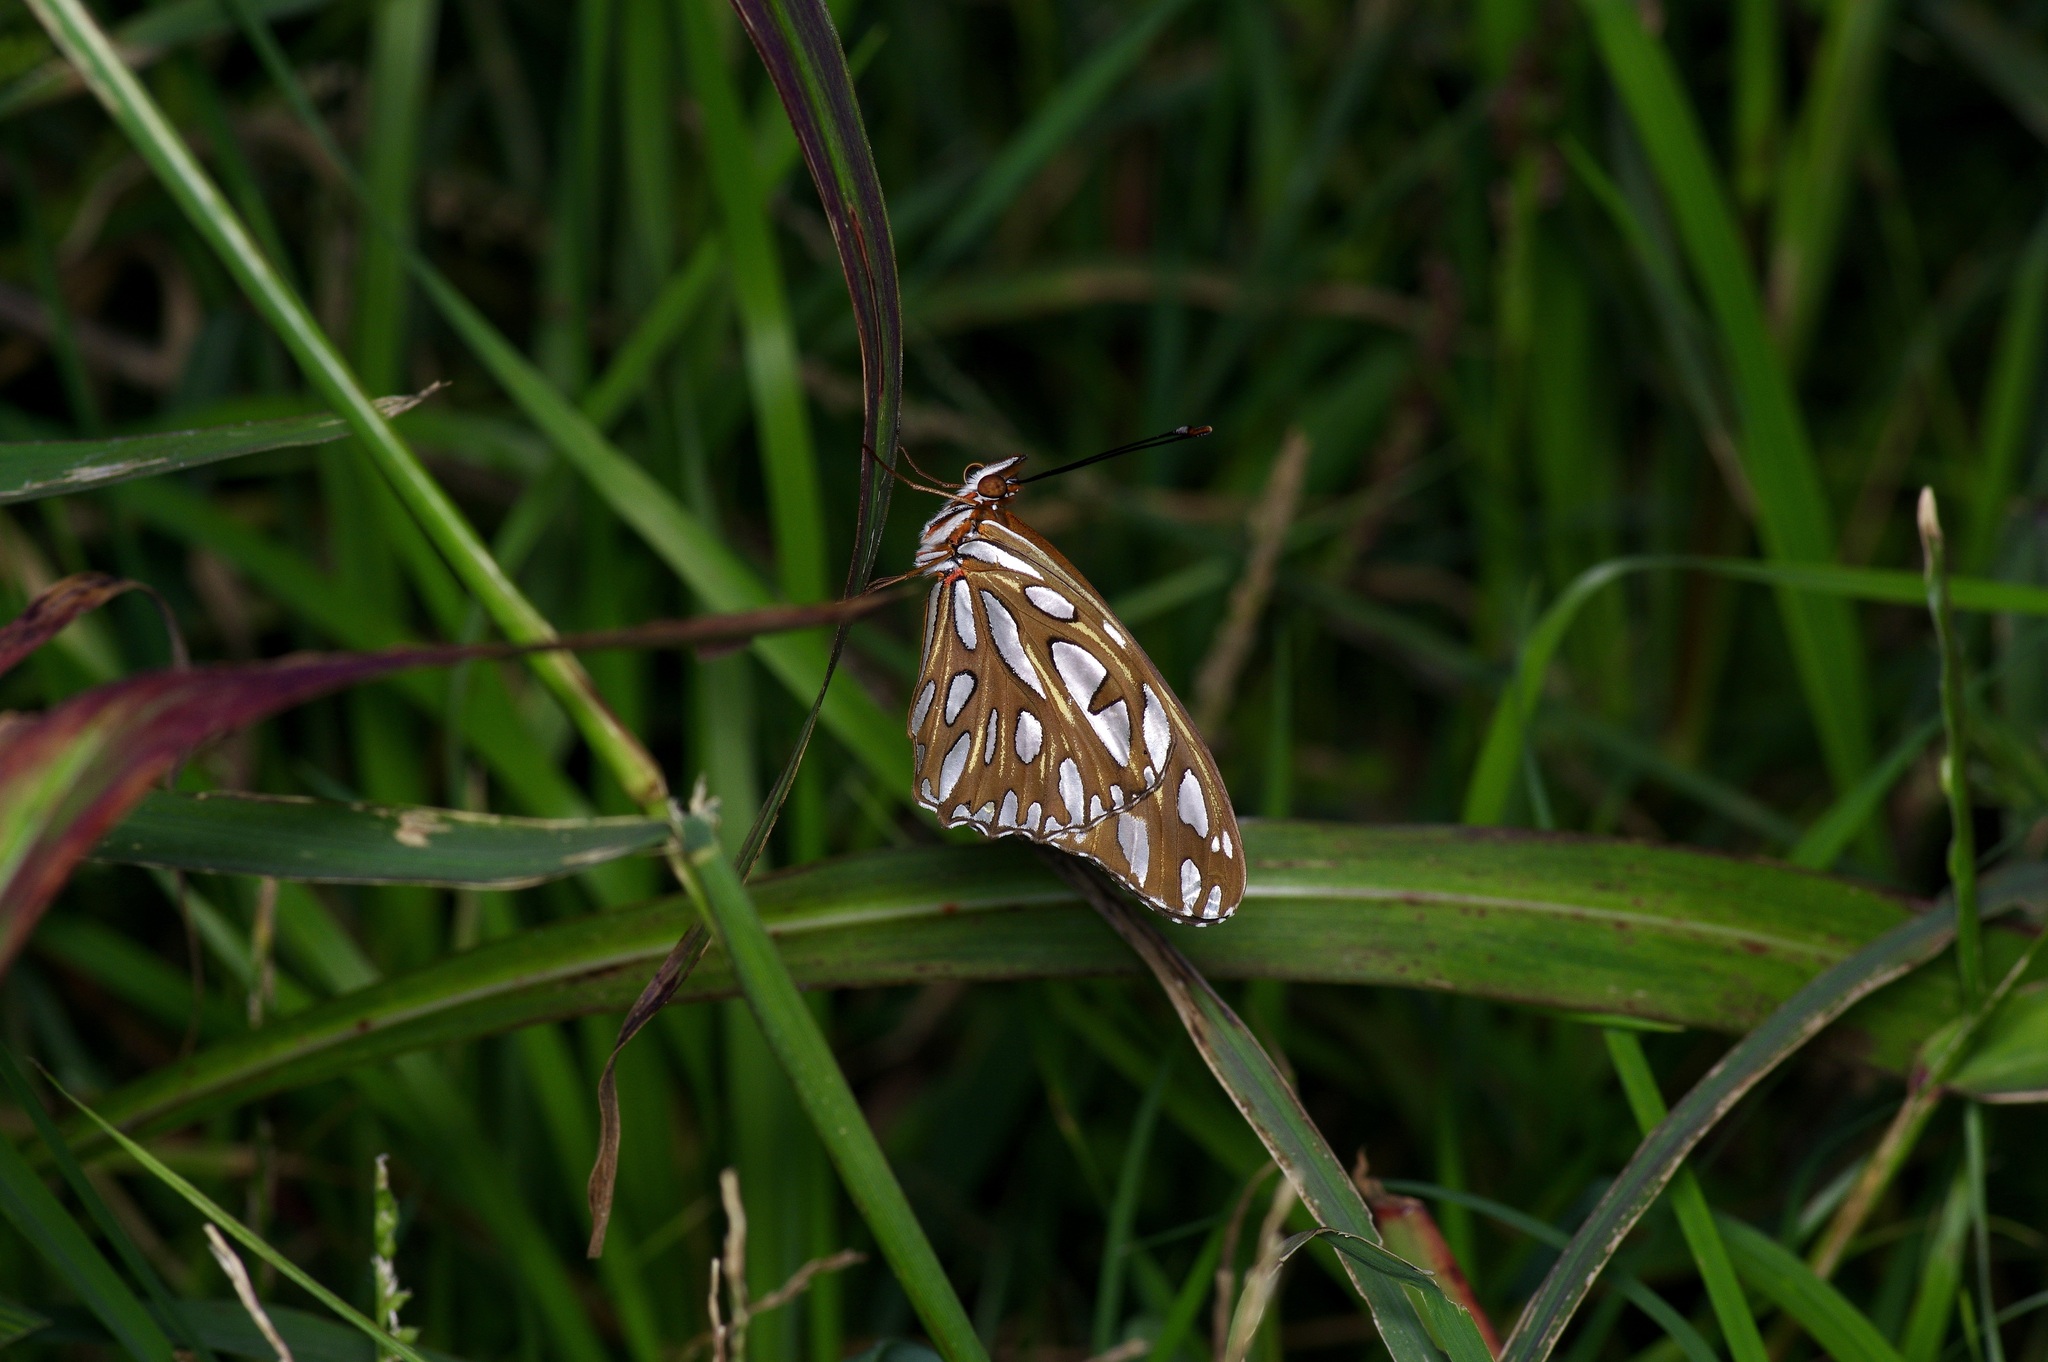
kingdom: Animalia
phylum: Arthropoda
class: Insecta
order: Lepidoptera
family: Nymphalidae
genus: Dione
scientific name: Dione vanillae
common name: Gulf fritillary
